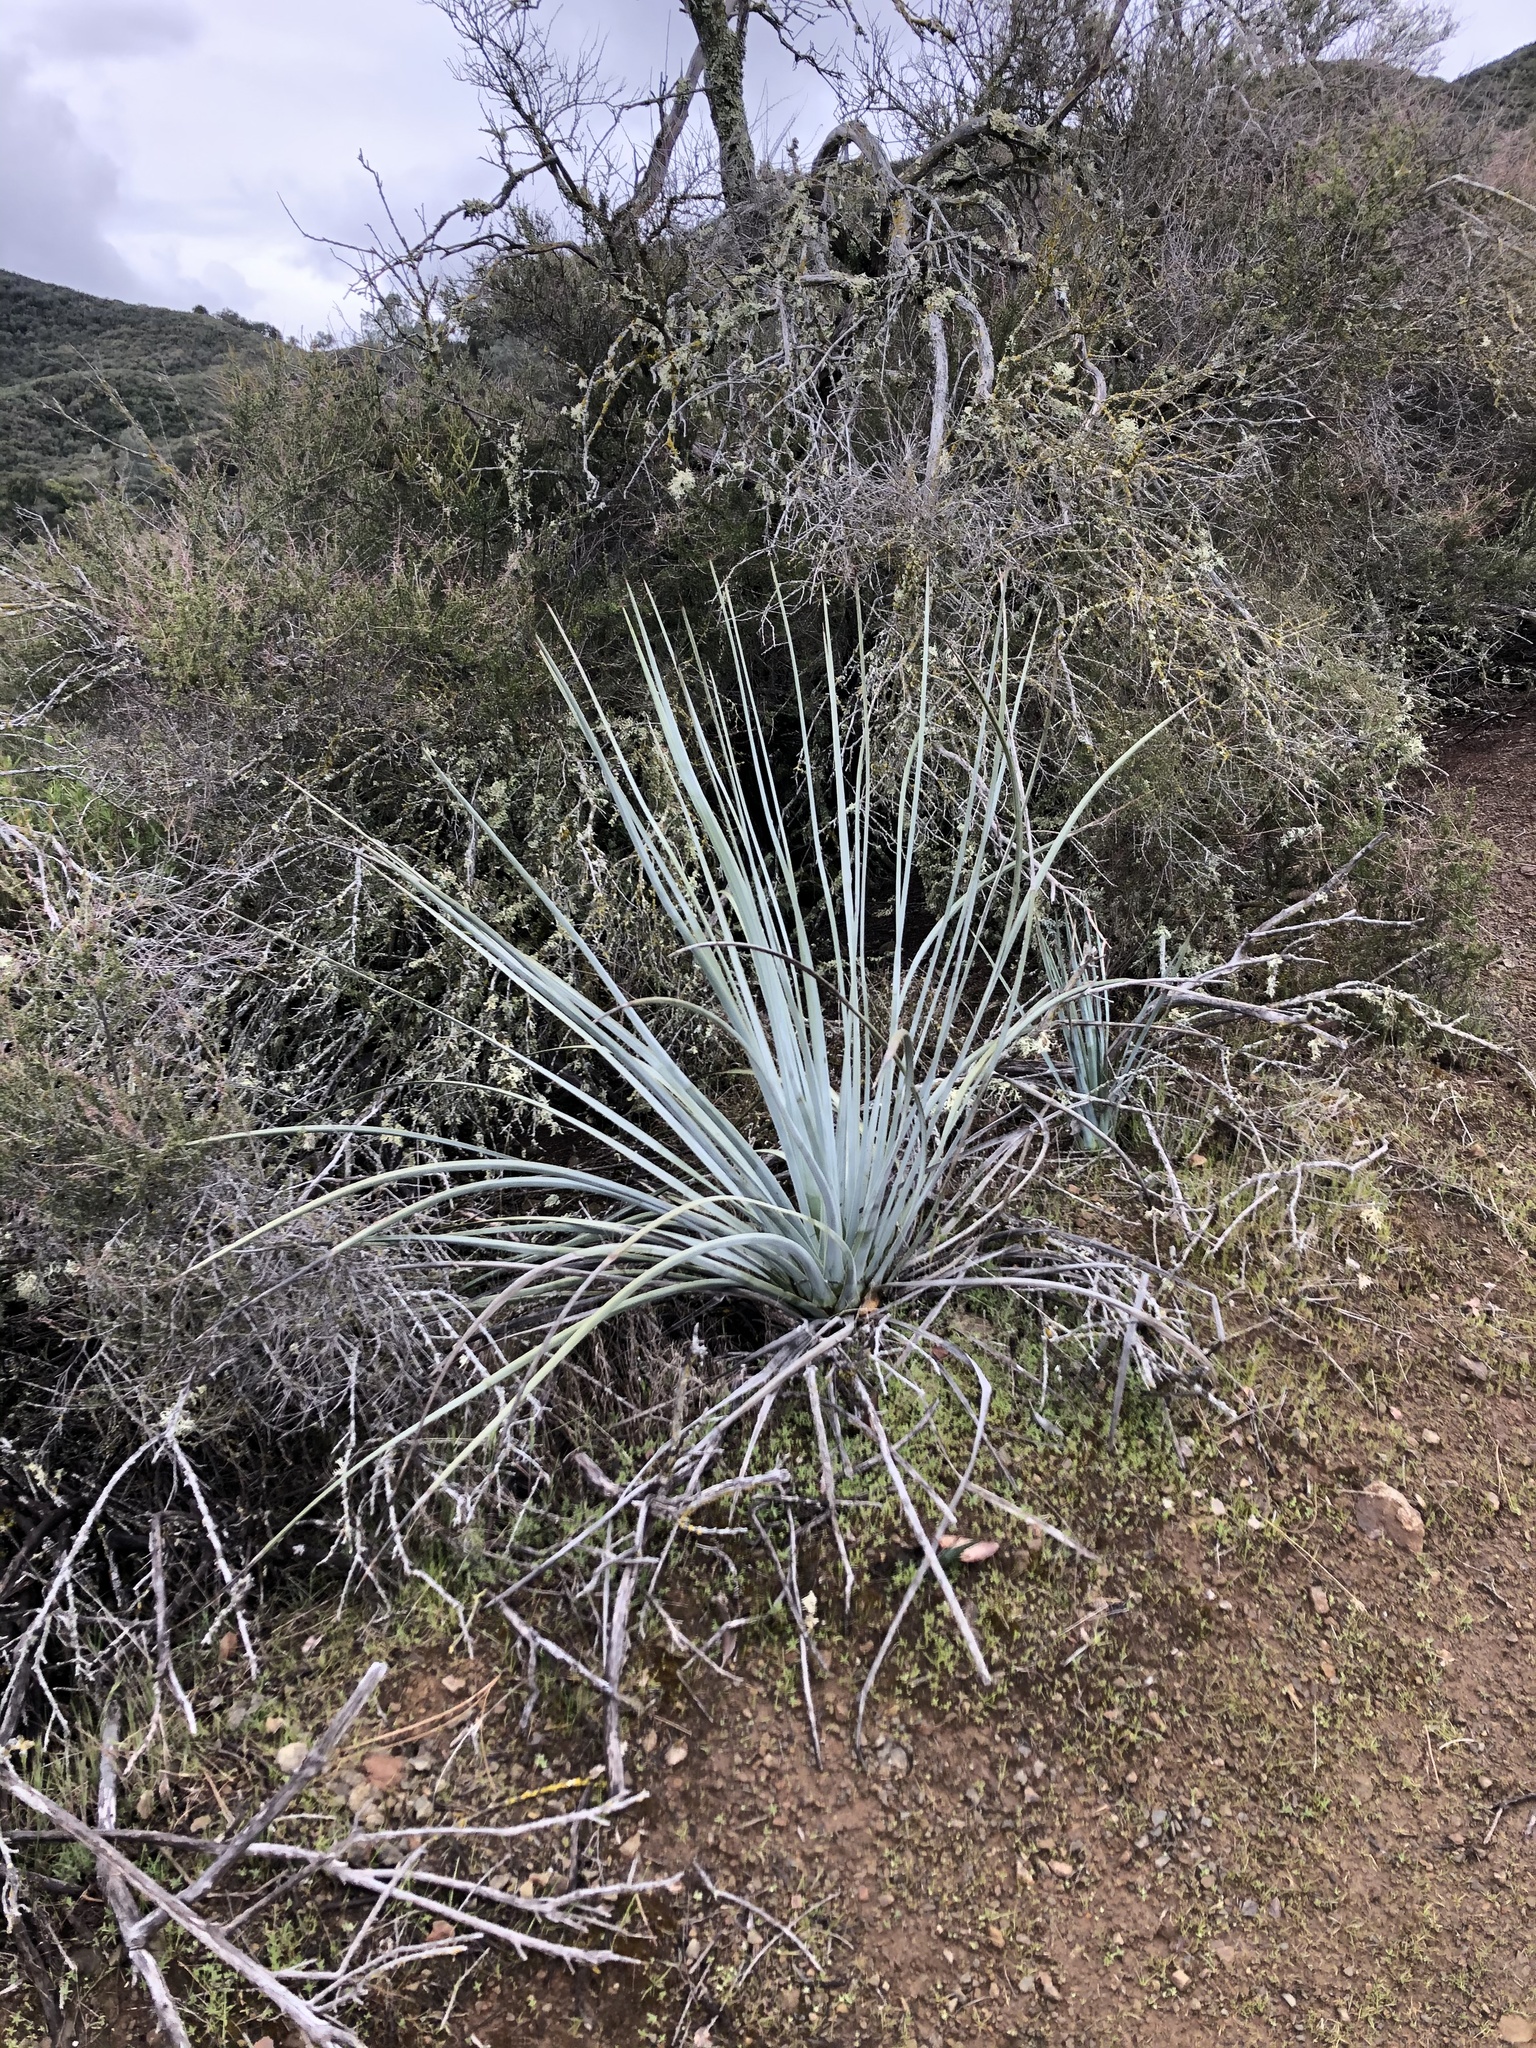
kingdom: Plantae
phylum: Tracheophyta
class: Liliopsida
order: Asparagales
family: Asparagaceae
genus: Hesperoyucca
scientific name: Hesperoyucca whipplei
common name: Our lord's-candle
